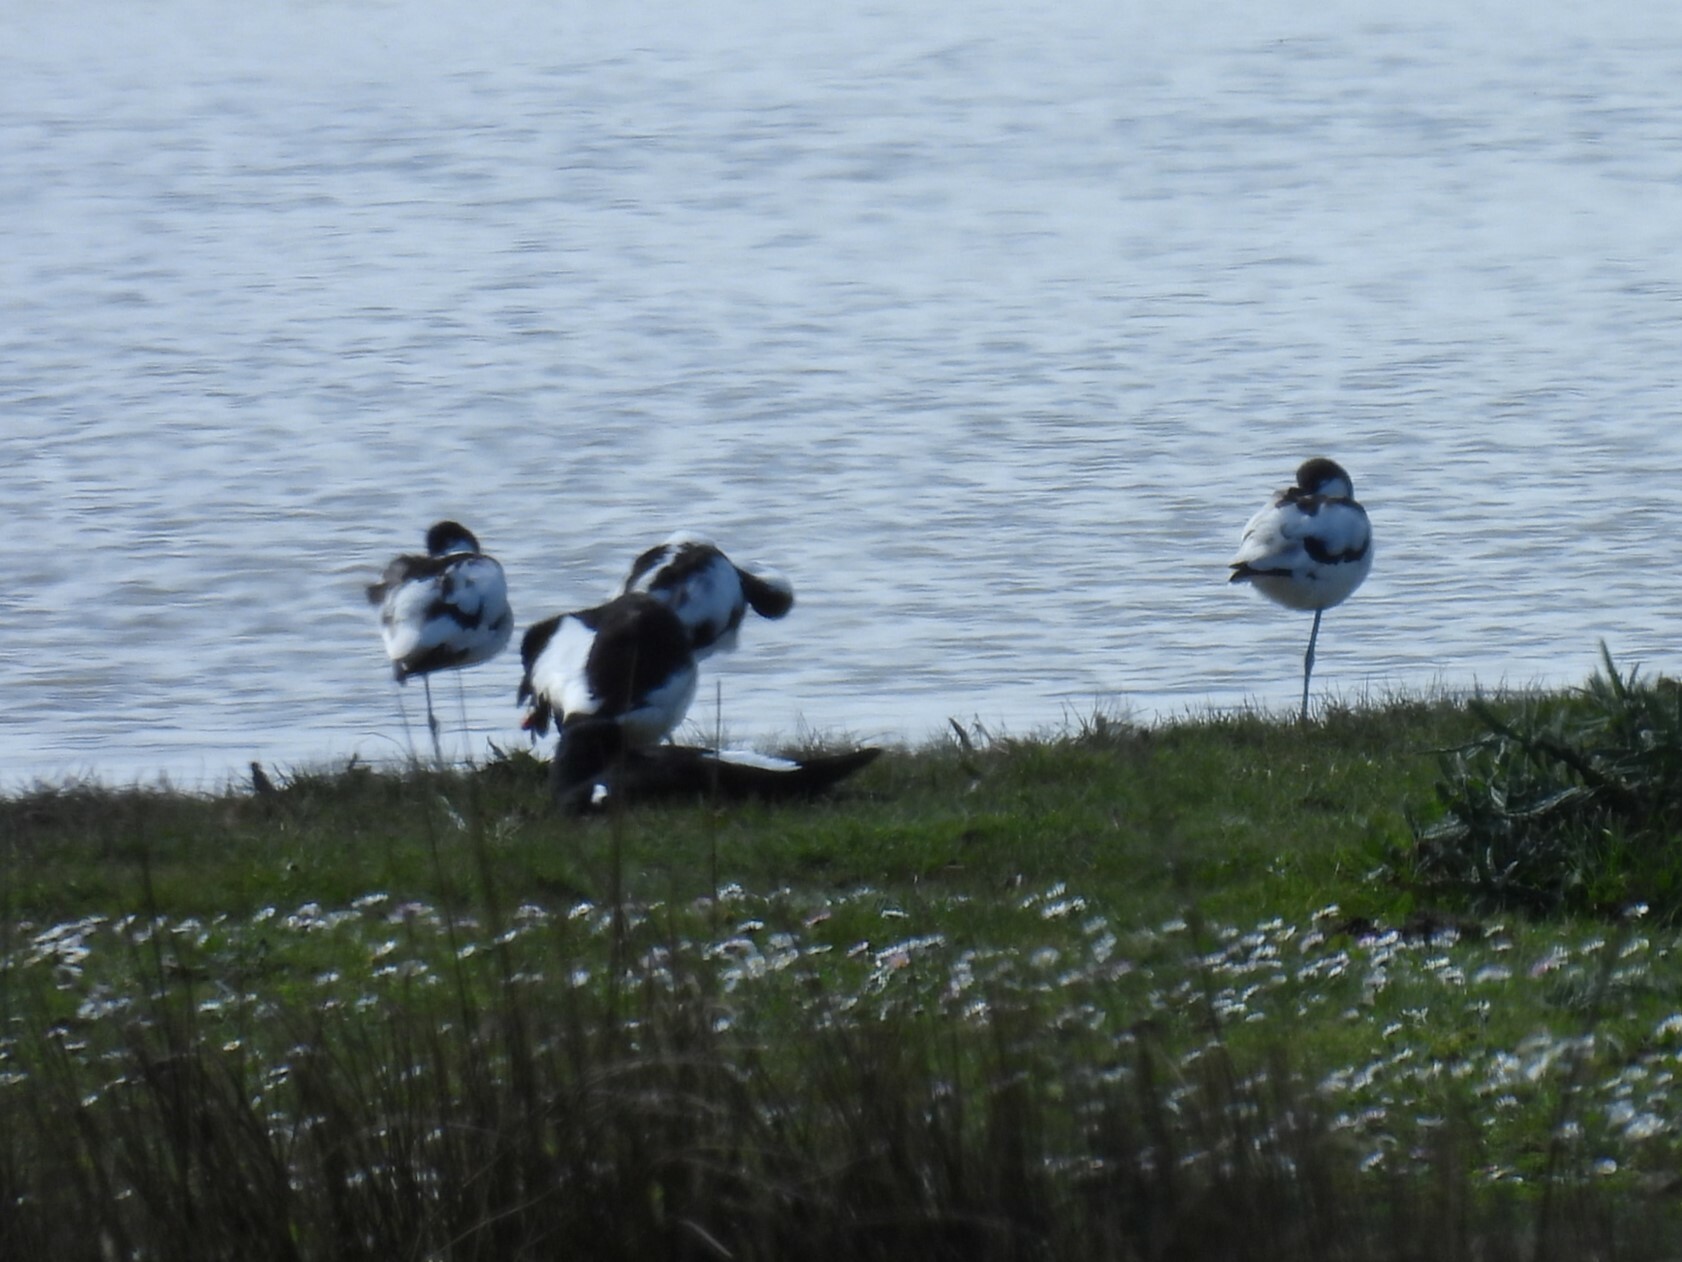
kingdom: Animalia
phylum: Chordata
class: Aves
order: Charadriiformes
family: Recurvirostridae
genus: Recurvirostra
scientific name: Recurvirostra avosetta
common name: Pied avocet
